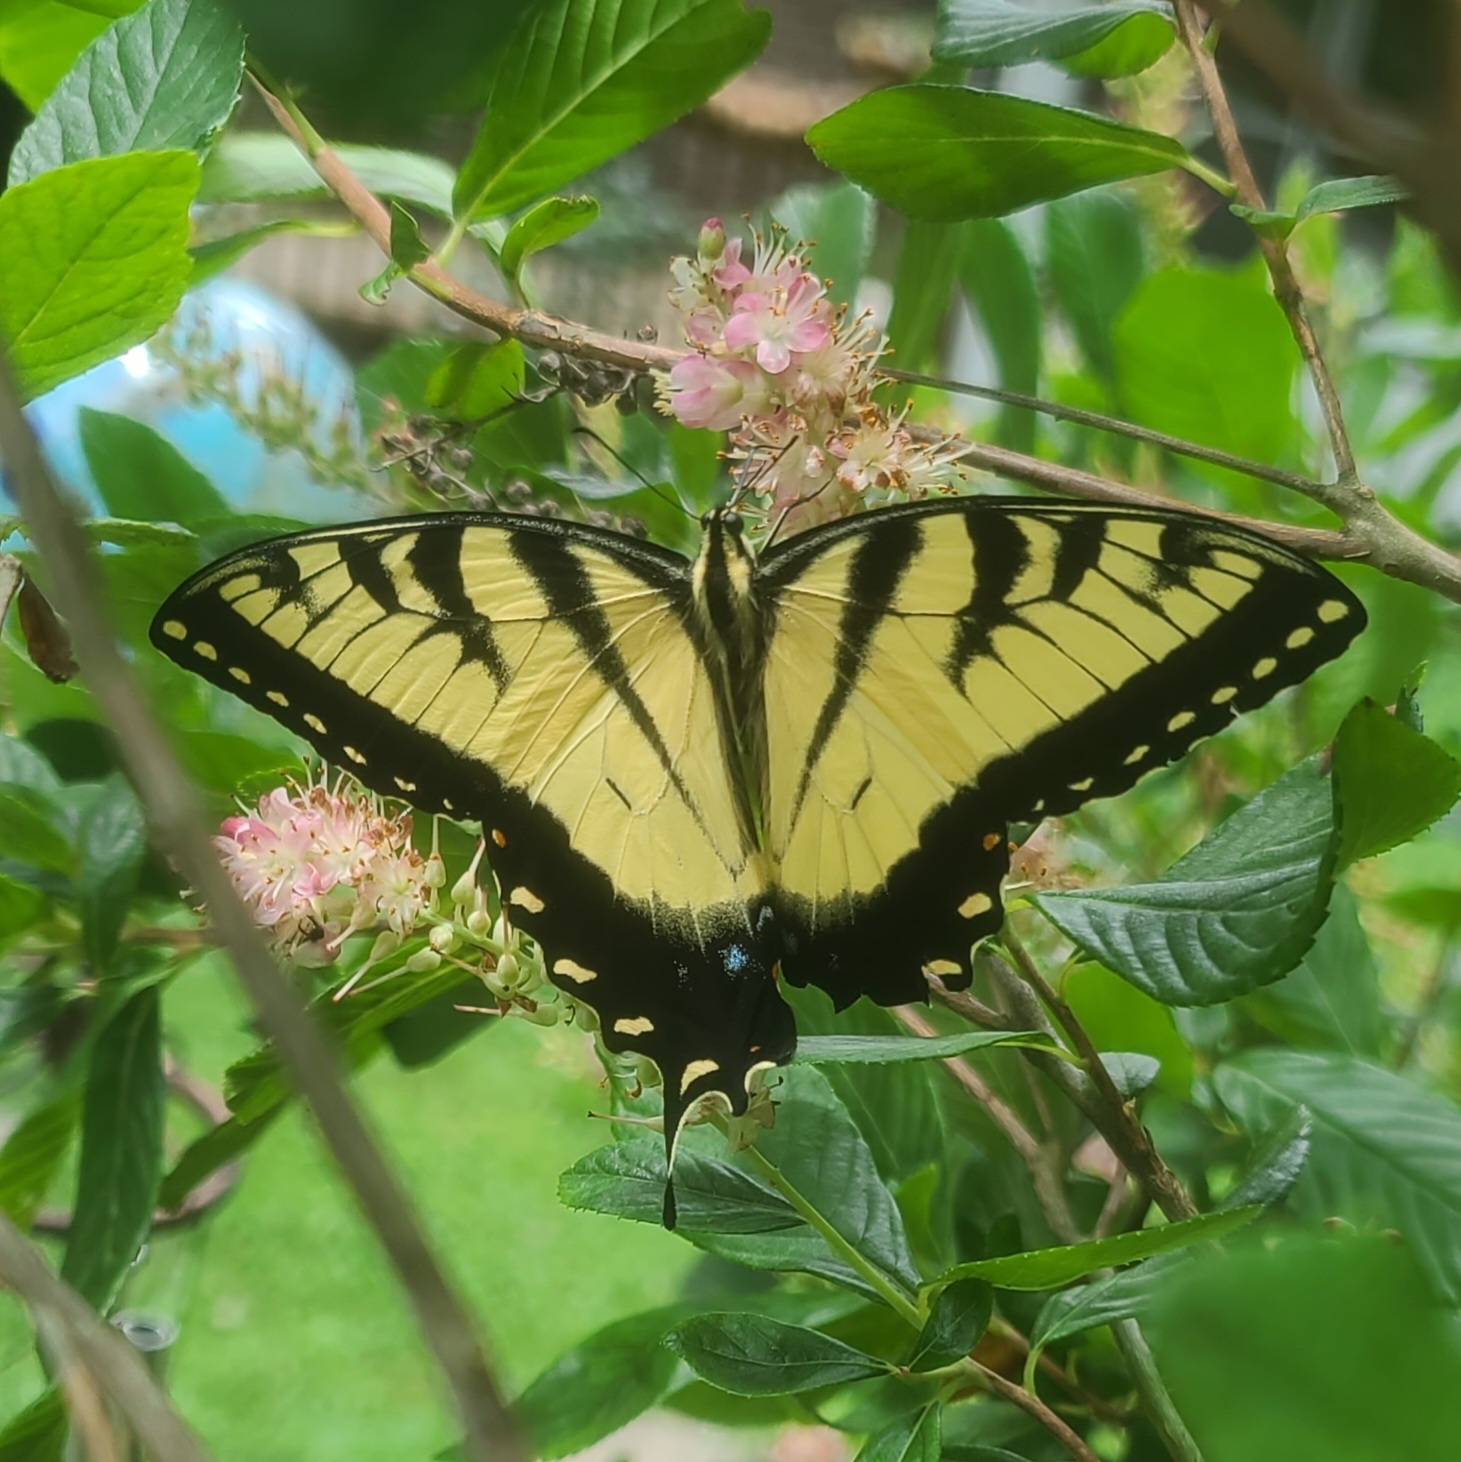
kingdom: Animalia
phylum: Arthropoda
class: Insecta
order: Lepidoptera
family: Papilionidae
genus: Papilio
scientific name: Papilio glaucus
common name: Tiger swallowtail
